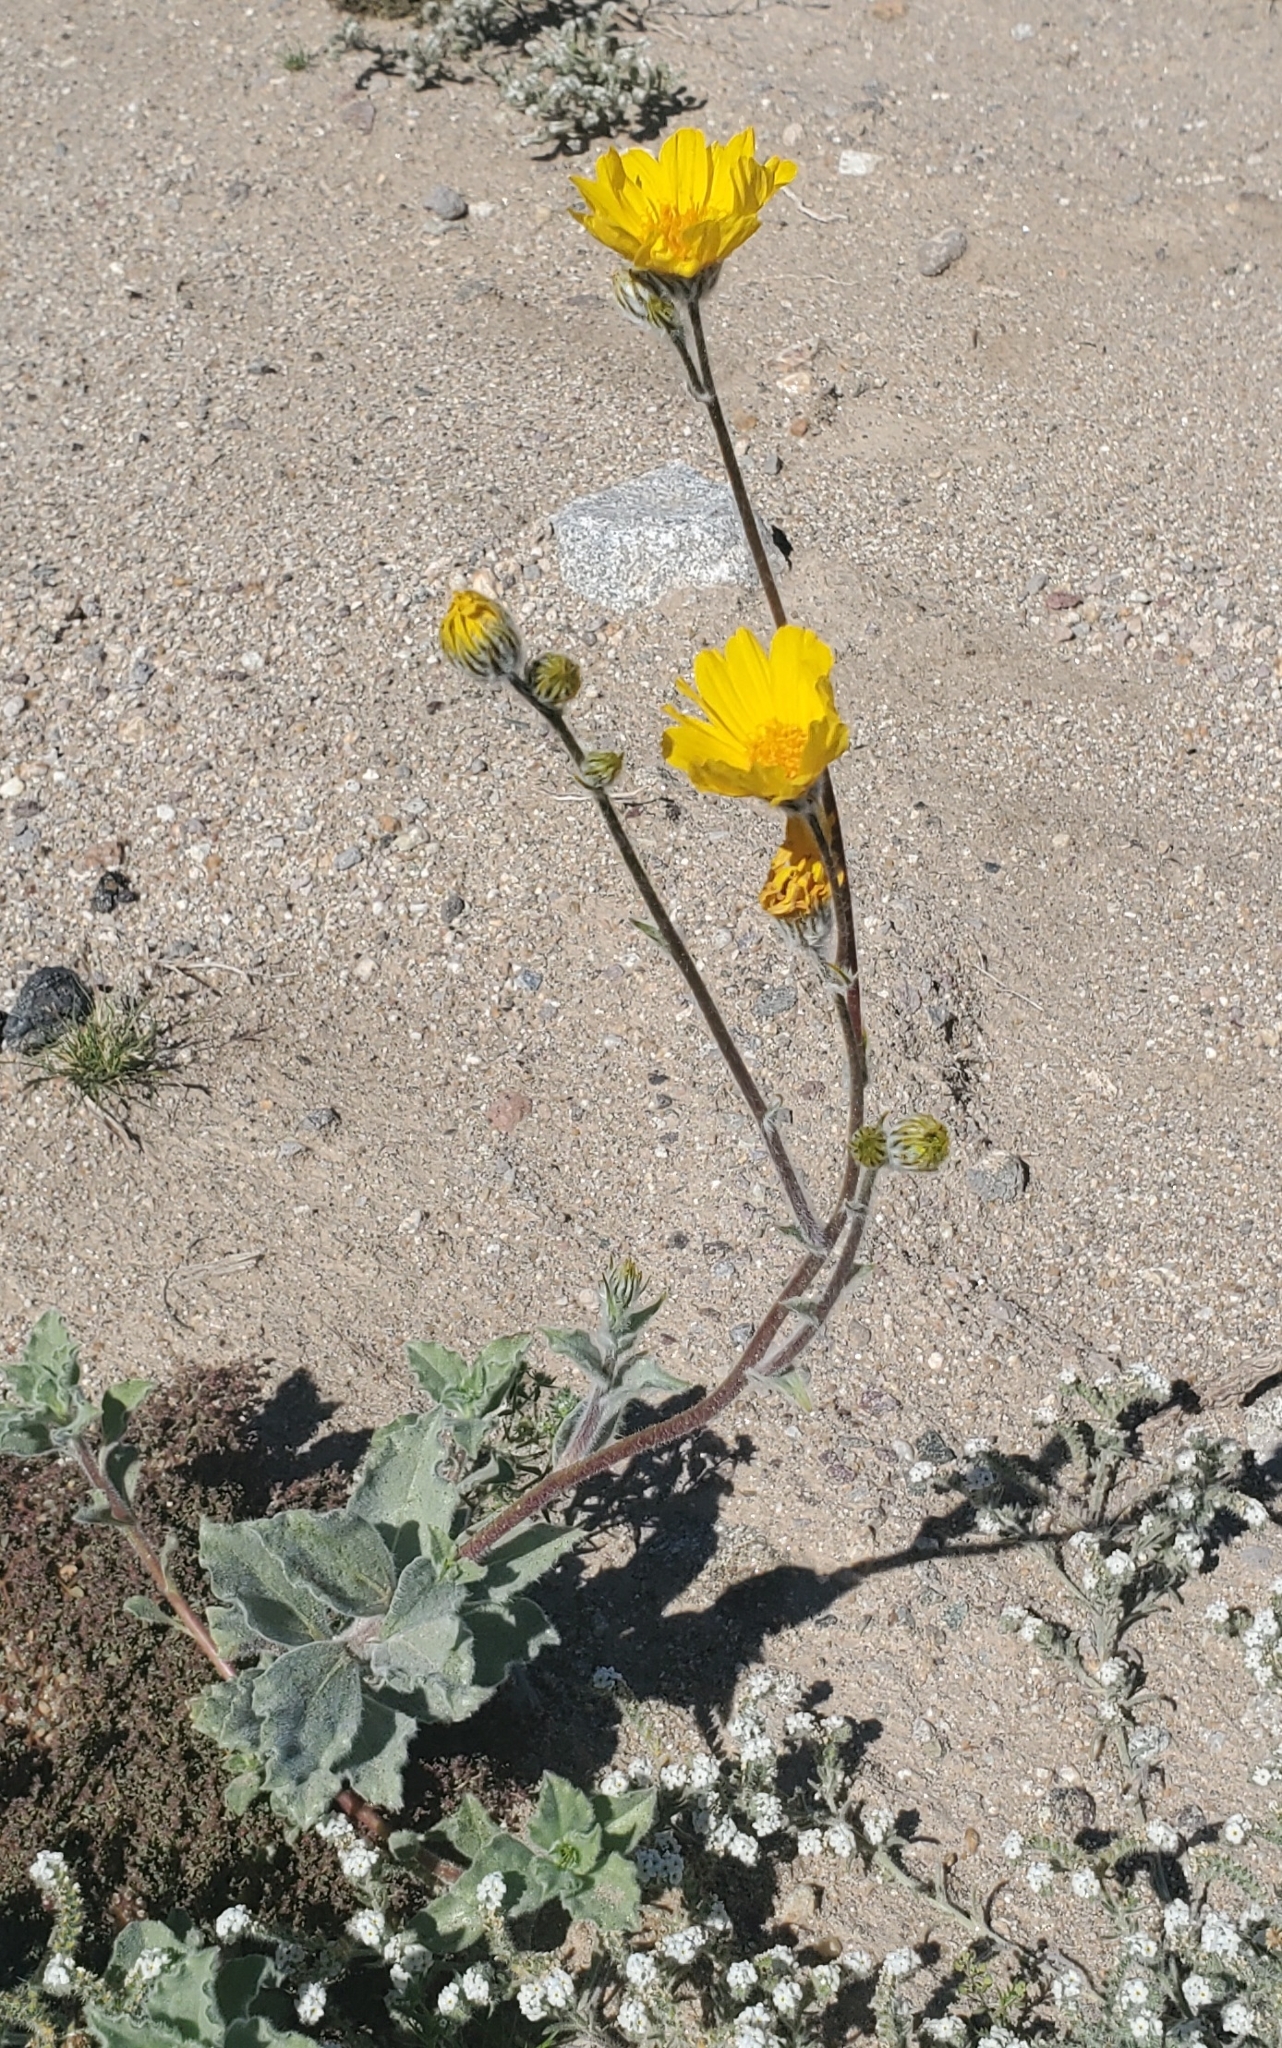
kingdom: Plantae
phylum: Tracheophyta
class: Magnoliopsida
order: Asterales
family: Asteraceae
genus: Geraea
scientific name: Geraea canescens
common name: Desert-gold
